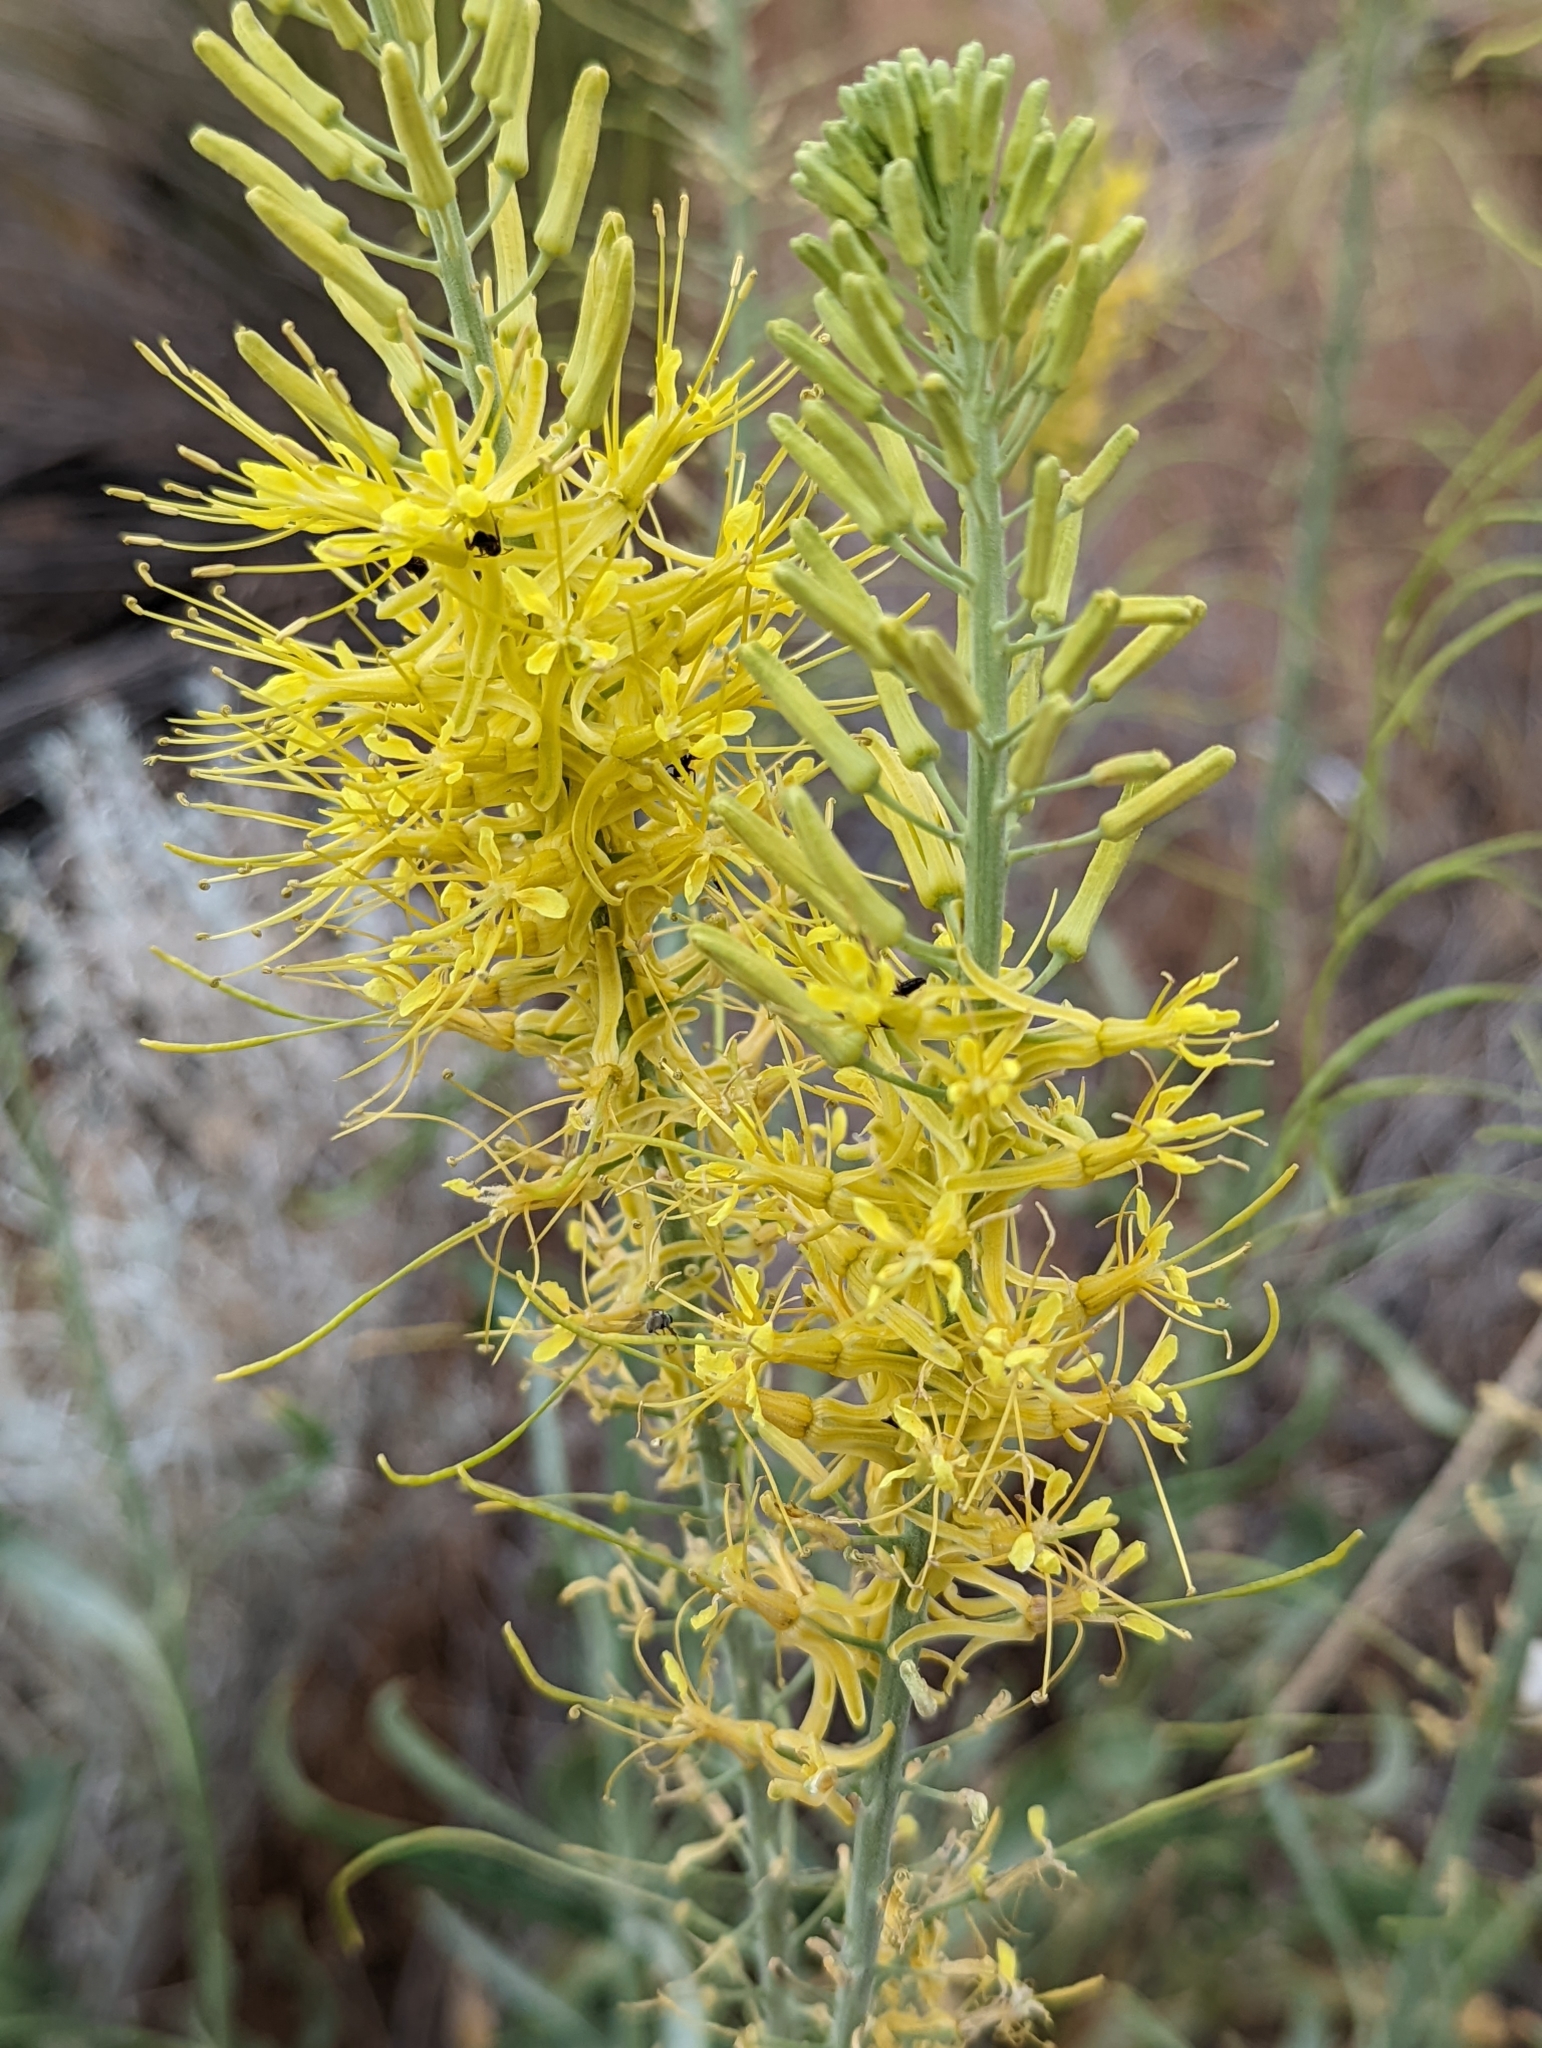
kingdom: Plantae
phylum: Tracheophyta
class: Magnoliopsida
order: Brassicales
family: Brassicaceae
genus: Stanleya
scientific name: Stanleya pinnata
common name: Prince's-plume
